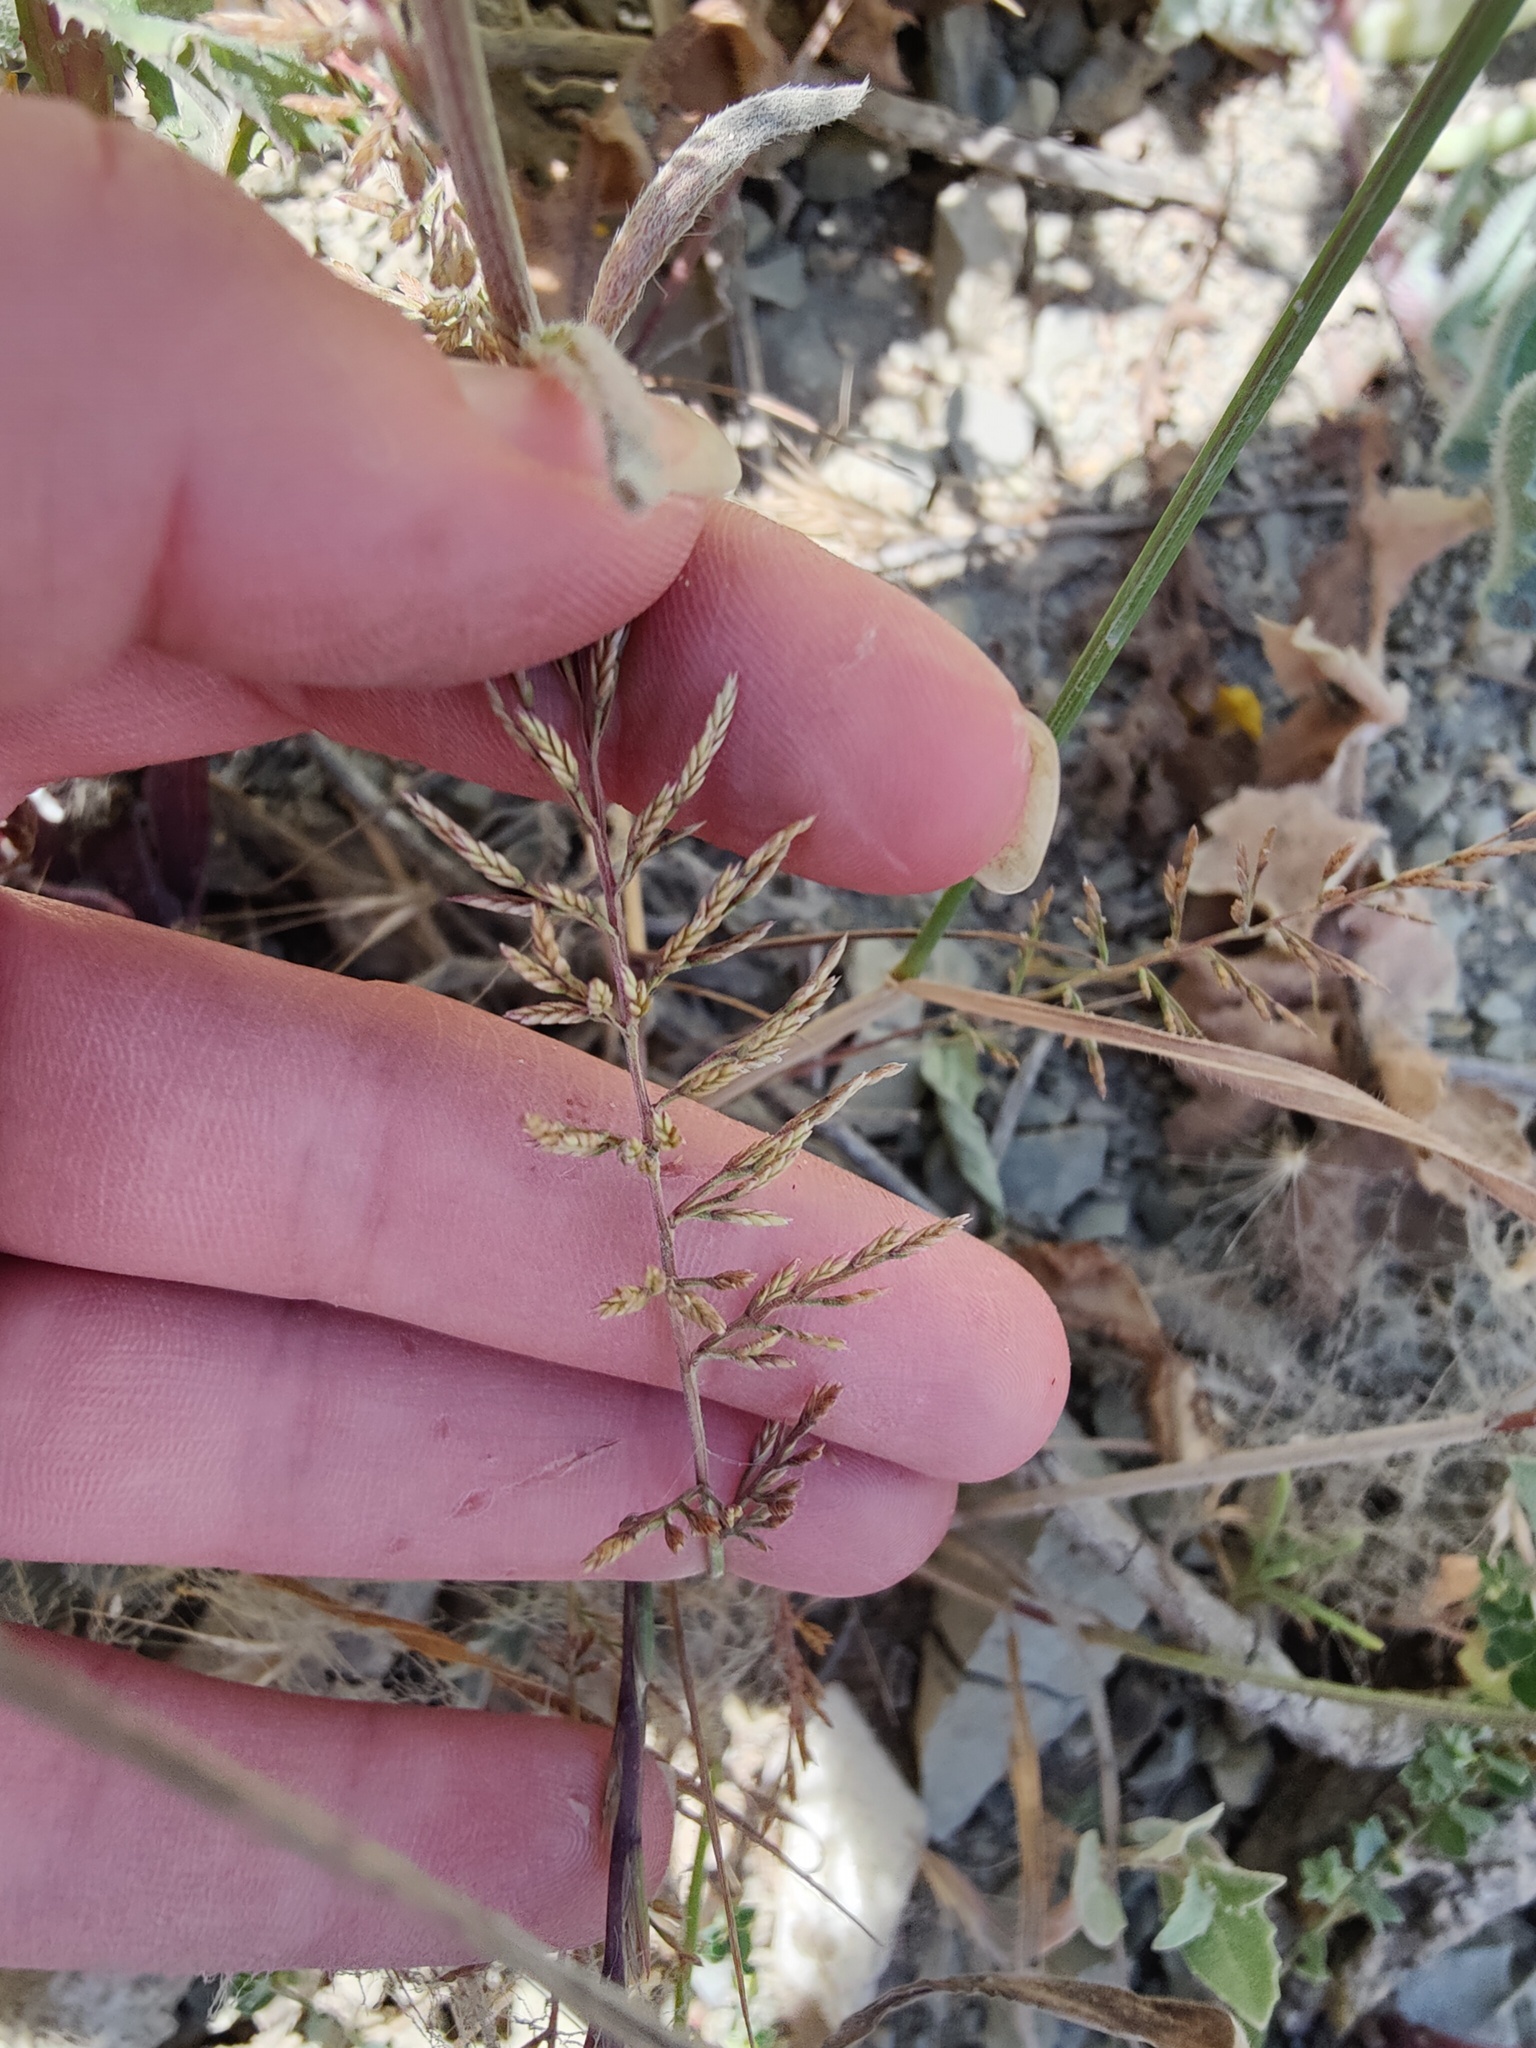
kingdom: Plantae
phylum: Tracheophyta
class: Liliopsida
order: Poales
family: Poaceae
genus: Catapodium
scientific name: Catapodium rigidum
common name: Fern-grass
